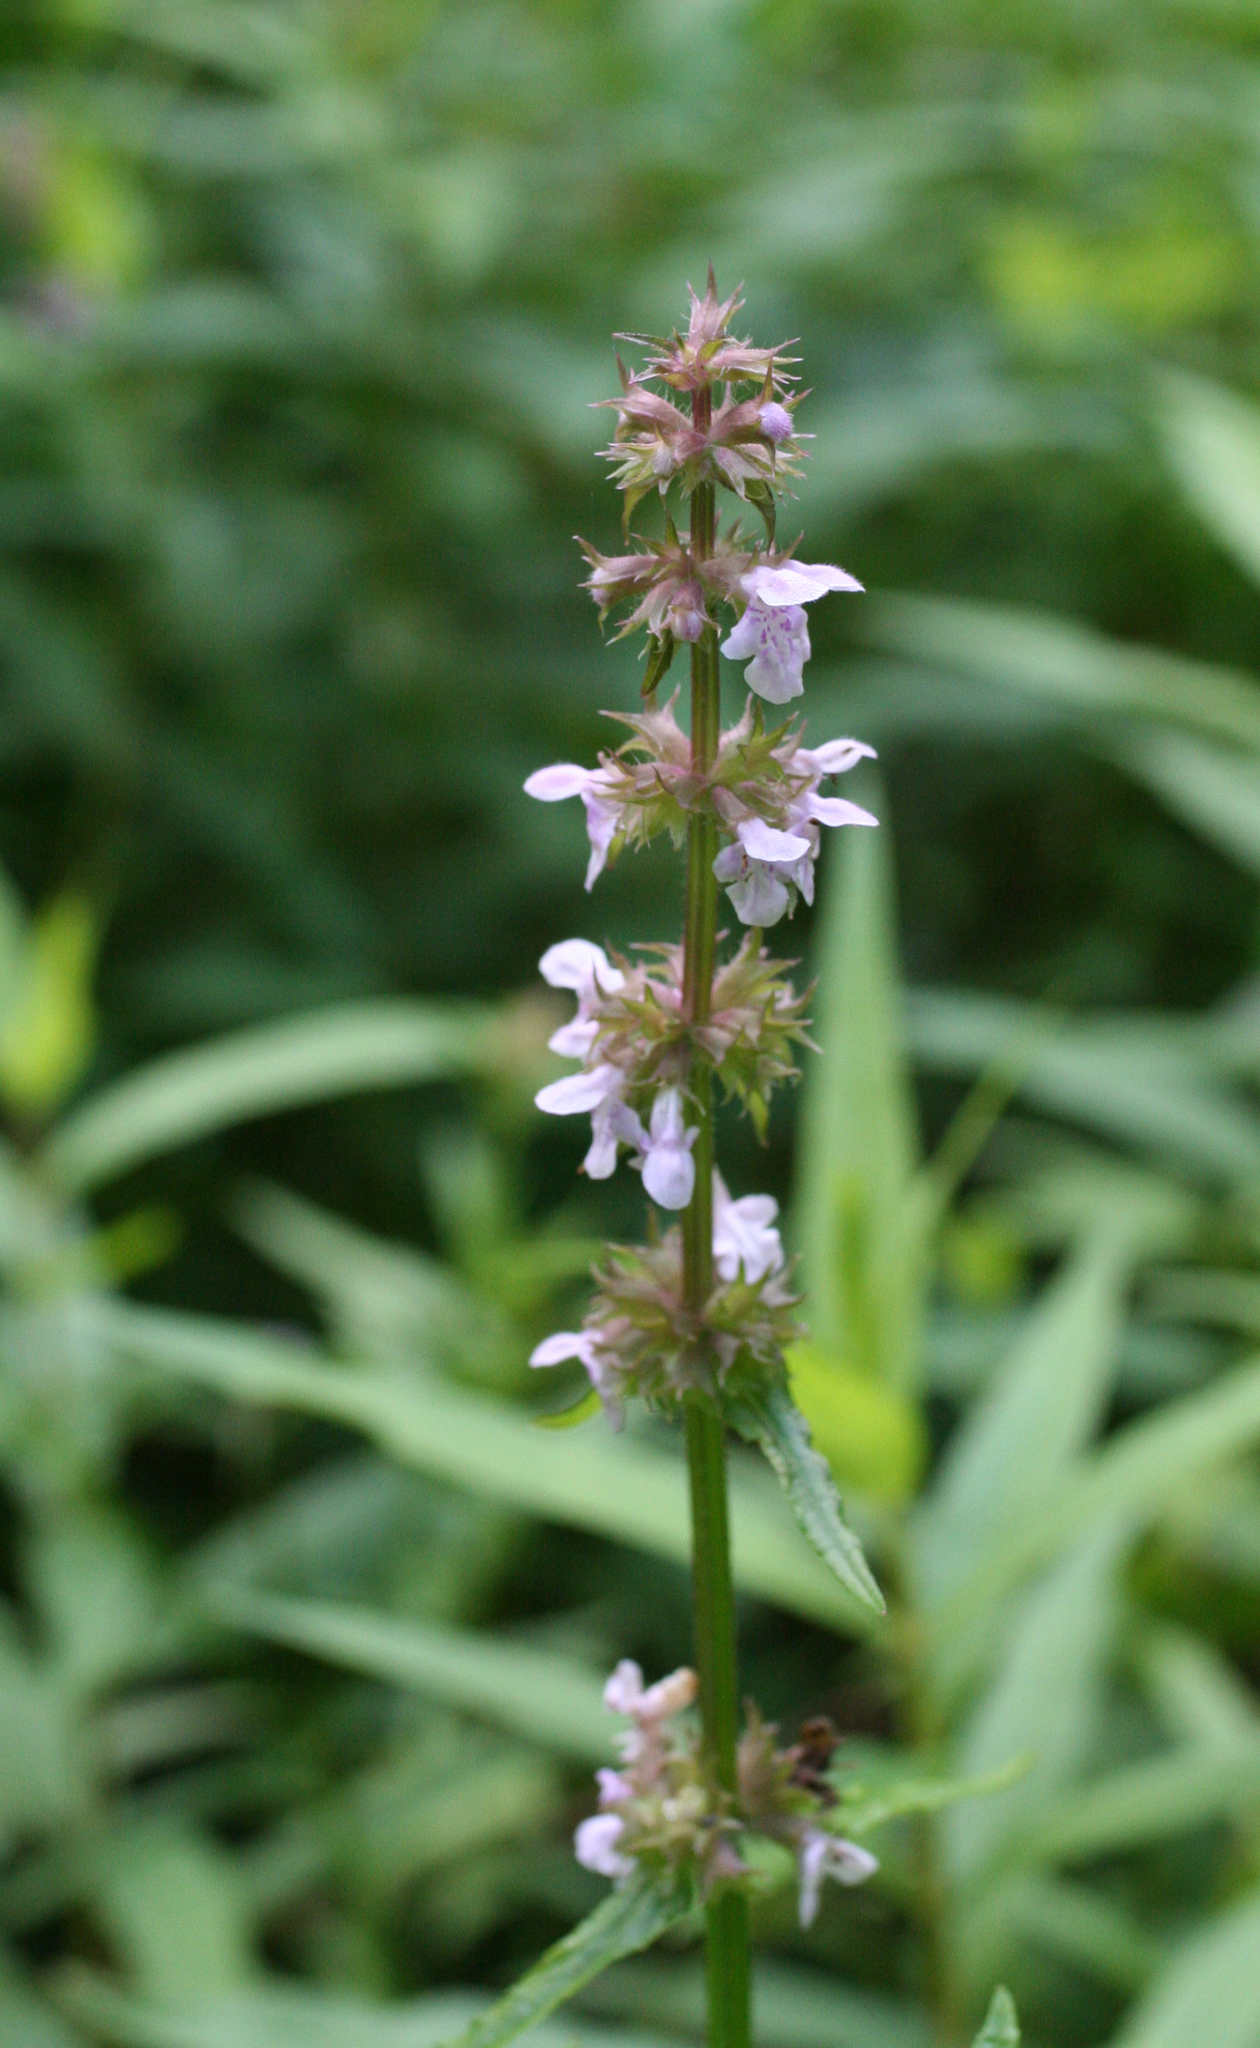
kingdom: Plantae
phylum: Tracheophyta
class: Magnoliopsida
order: Lamiales
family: Lamiaceae
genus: Stachys
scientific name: Stachys aspera
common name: Hyssopleaf hedgenettle
